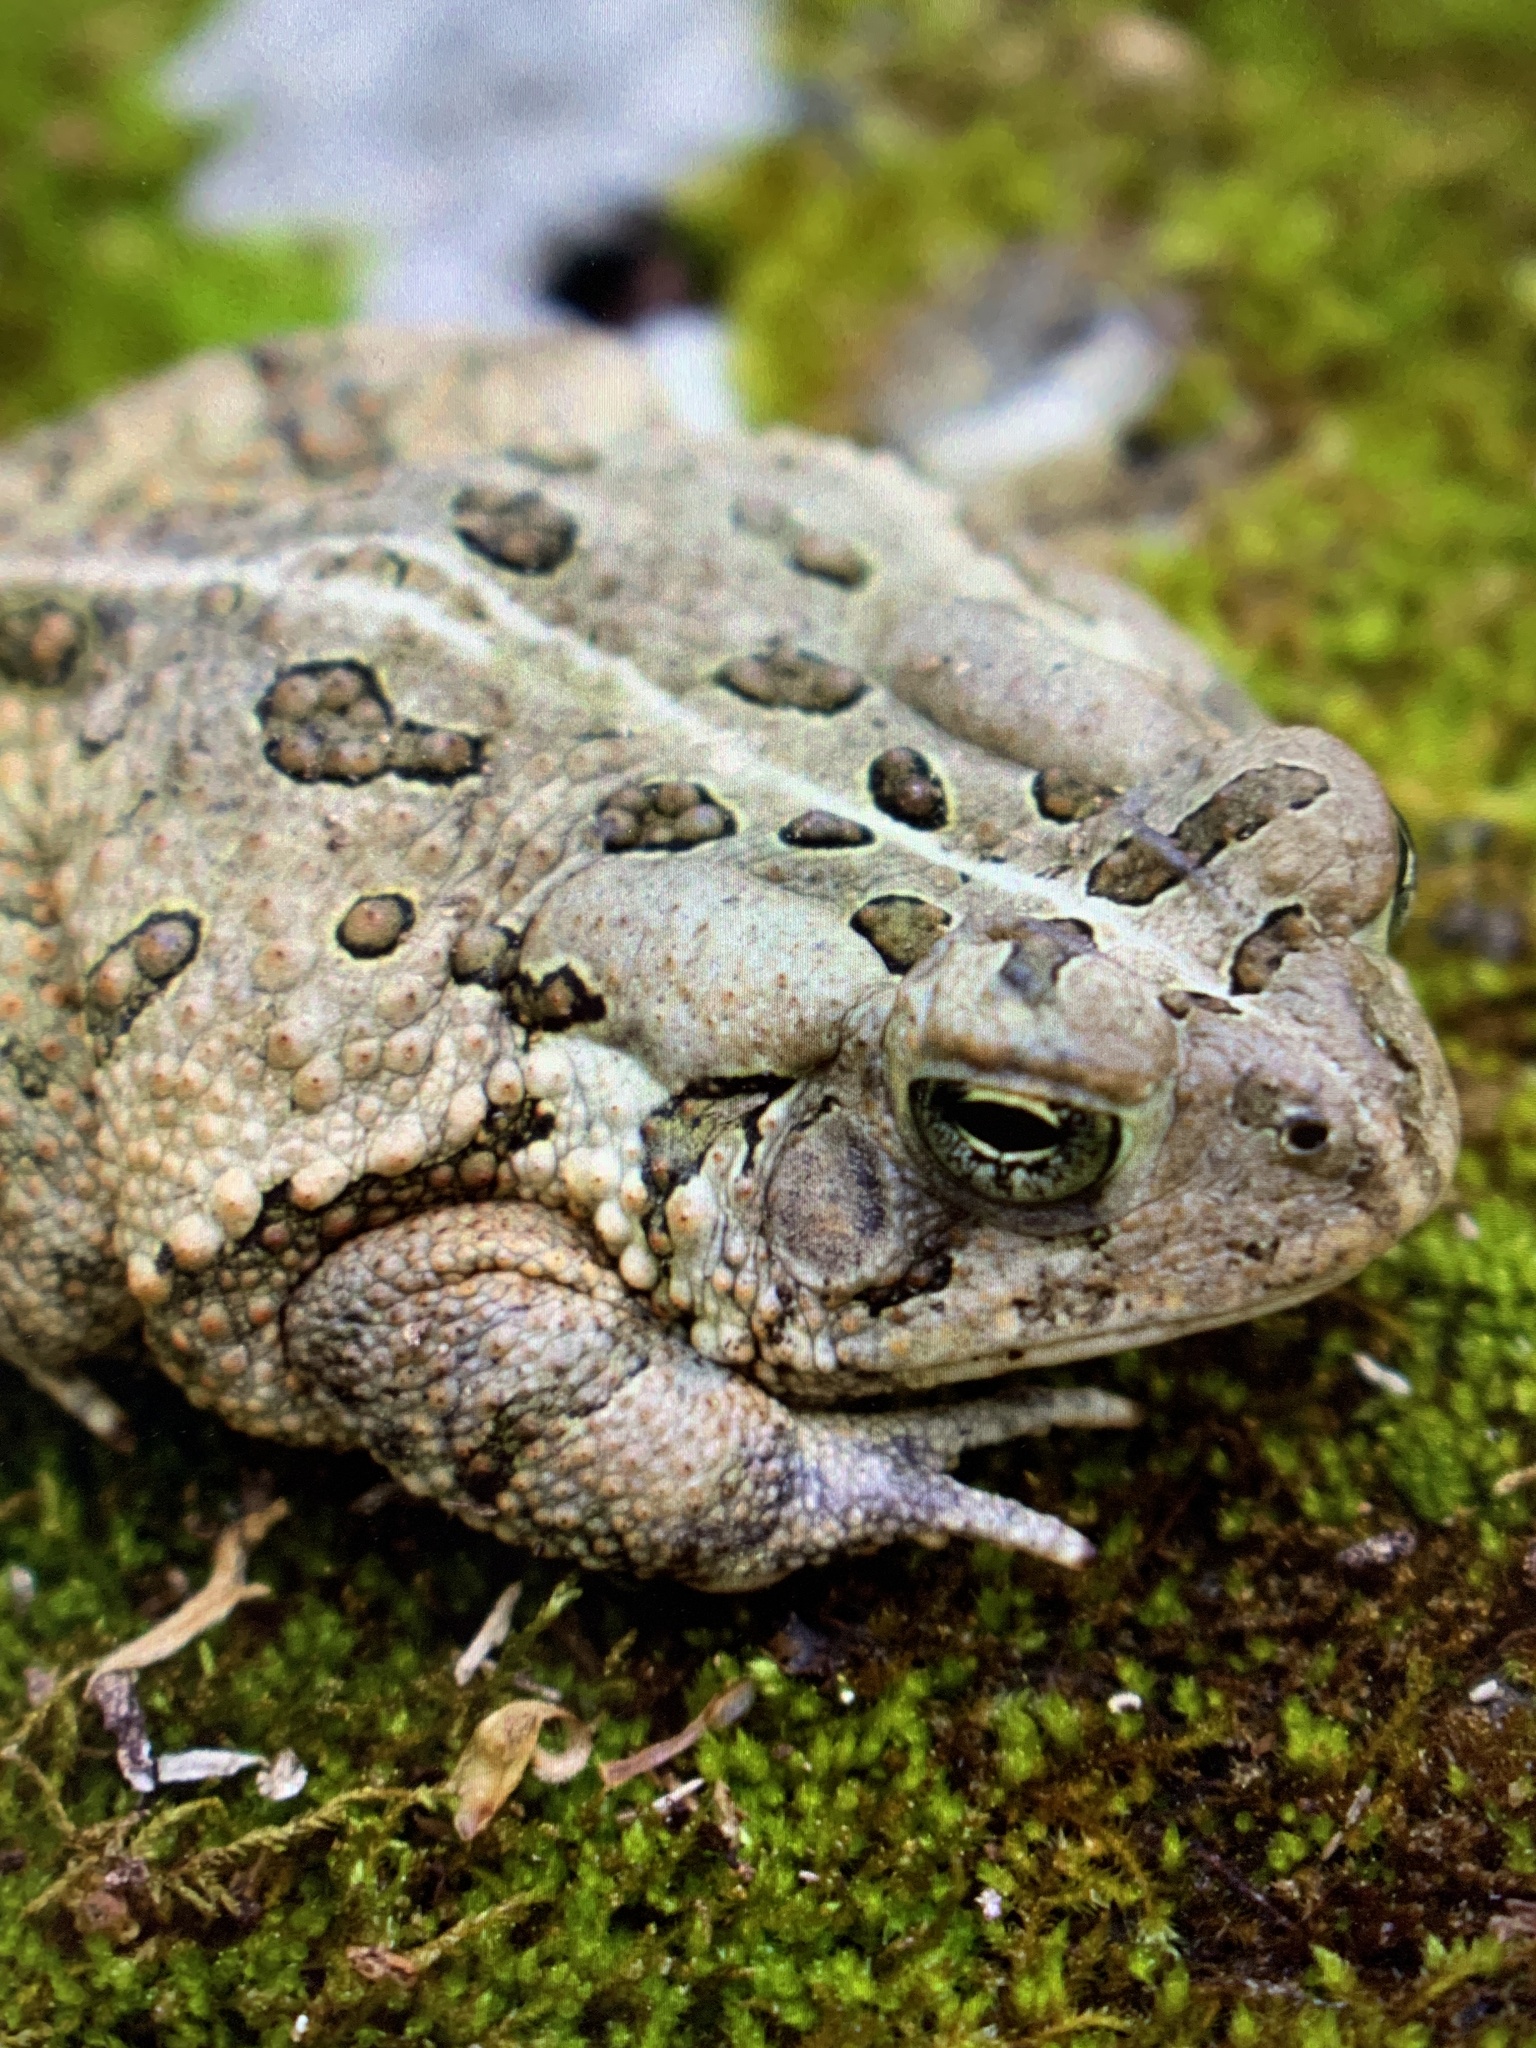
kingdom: Animalia
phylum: Chordata
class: Amphibia
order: Anura
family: Bufonidae
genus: Anaxyrus
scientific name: Anaxyrus fowleri
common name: Fowler's toad
